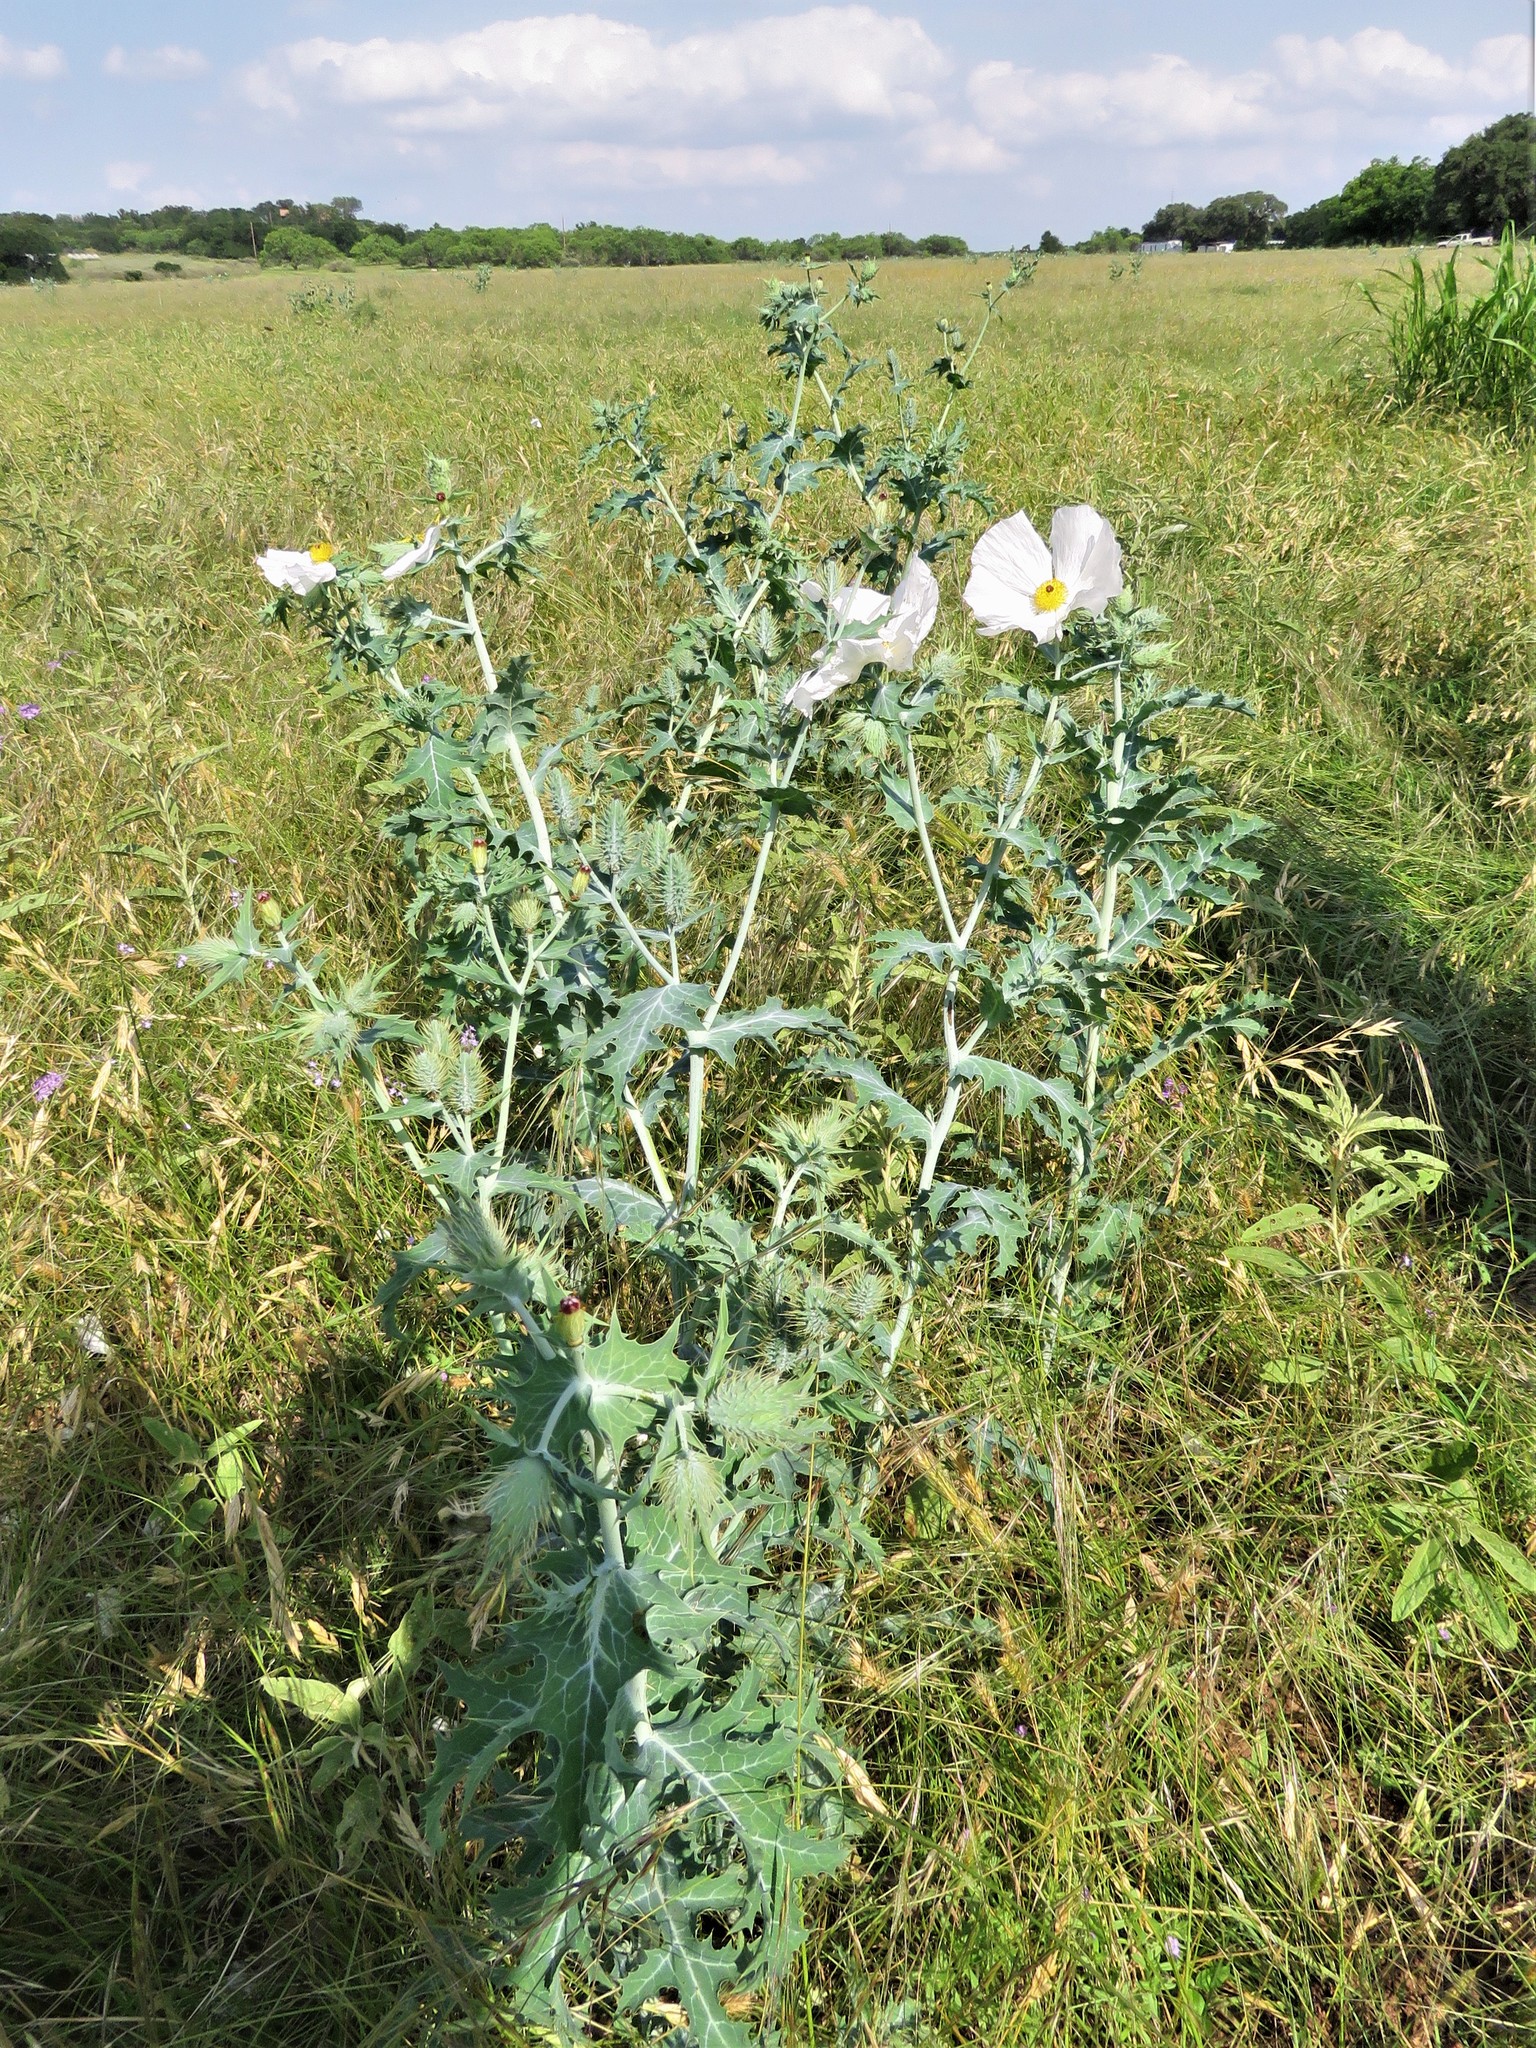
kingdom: Plantae
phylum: Tracheophyta
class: Magnoliopsida
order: Ranunculales
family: Papaveraceae
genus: Argemone
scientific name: Argemone albiflora
